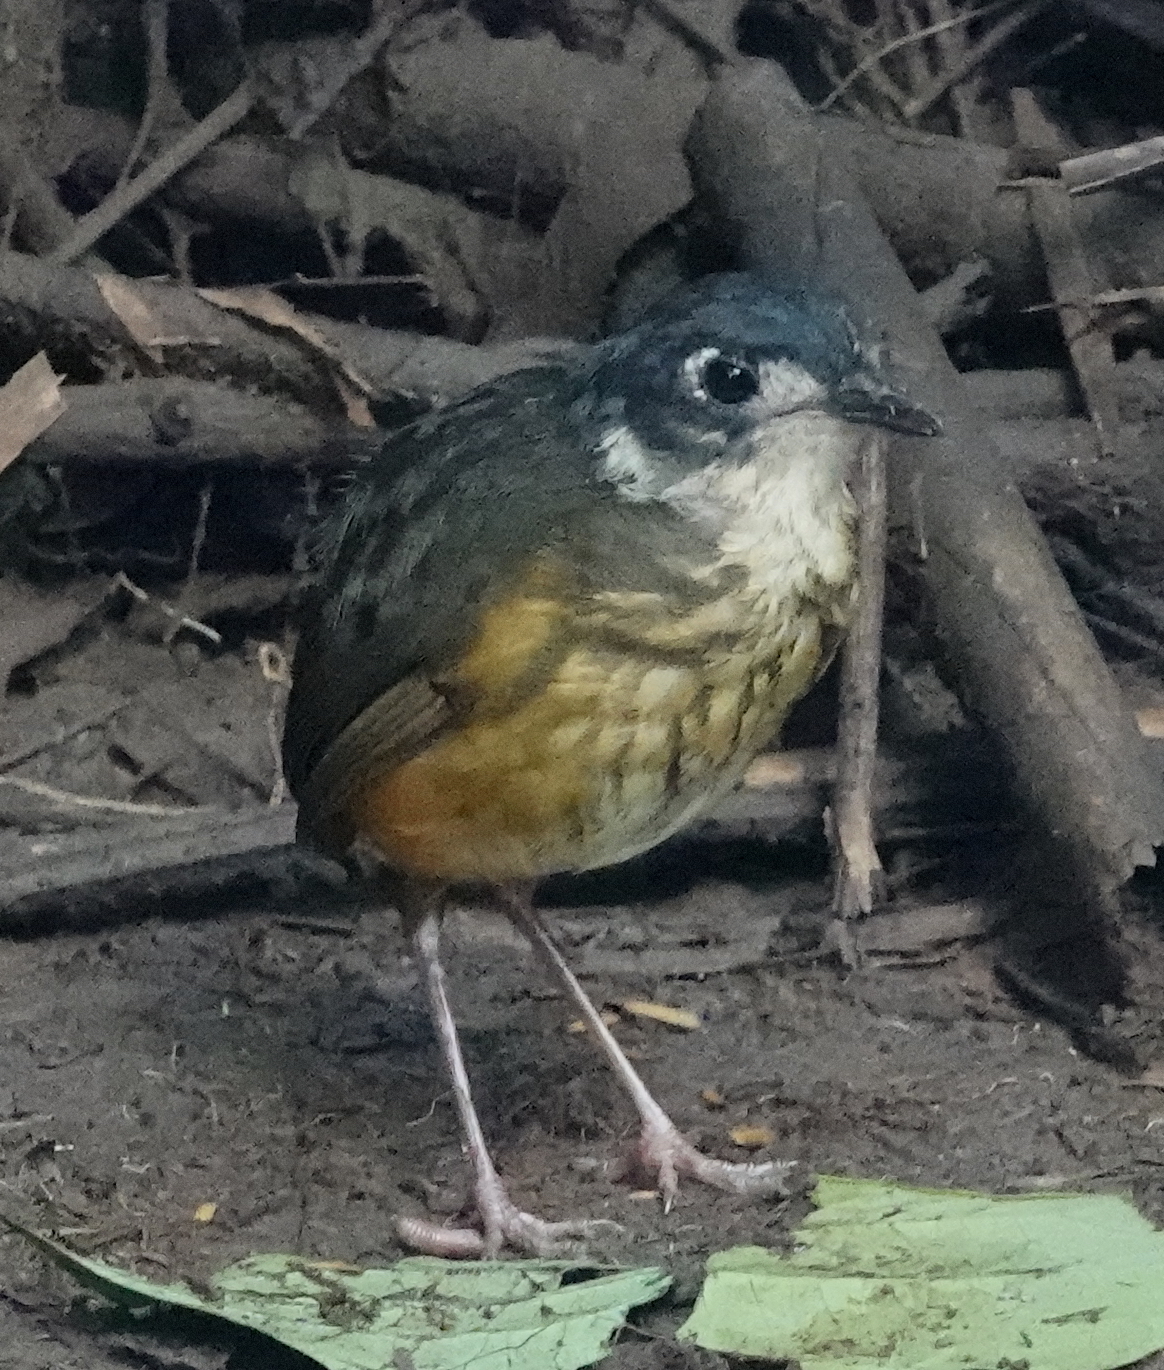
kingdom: Animalia
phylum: Chordata
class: Aves
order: Passeriformes
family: Grallariidae
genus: Hylopezus
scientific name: Hylopezus fulviventris
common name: White-lored antpitta
